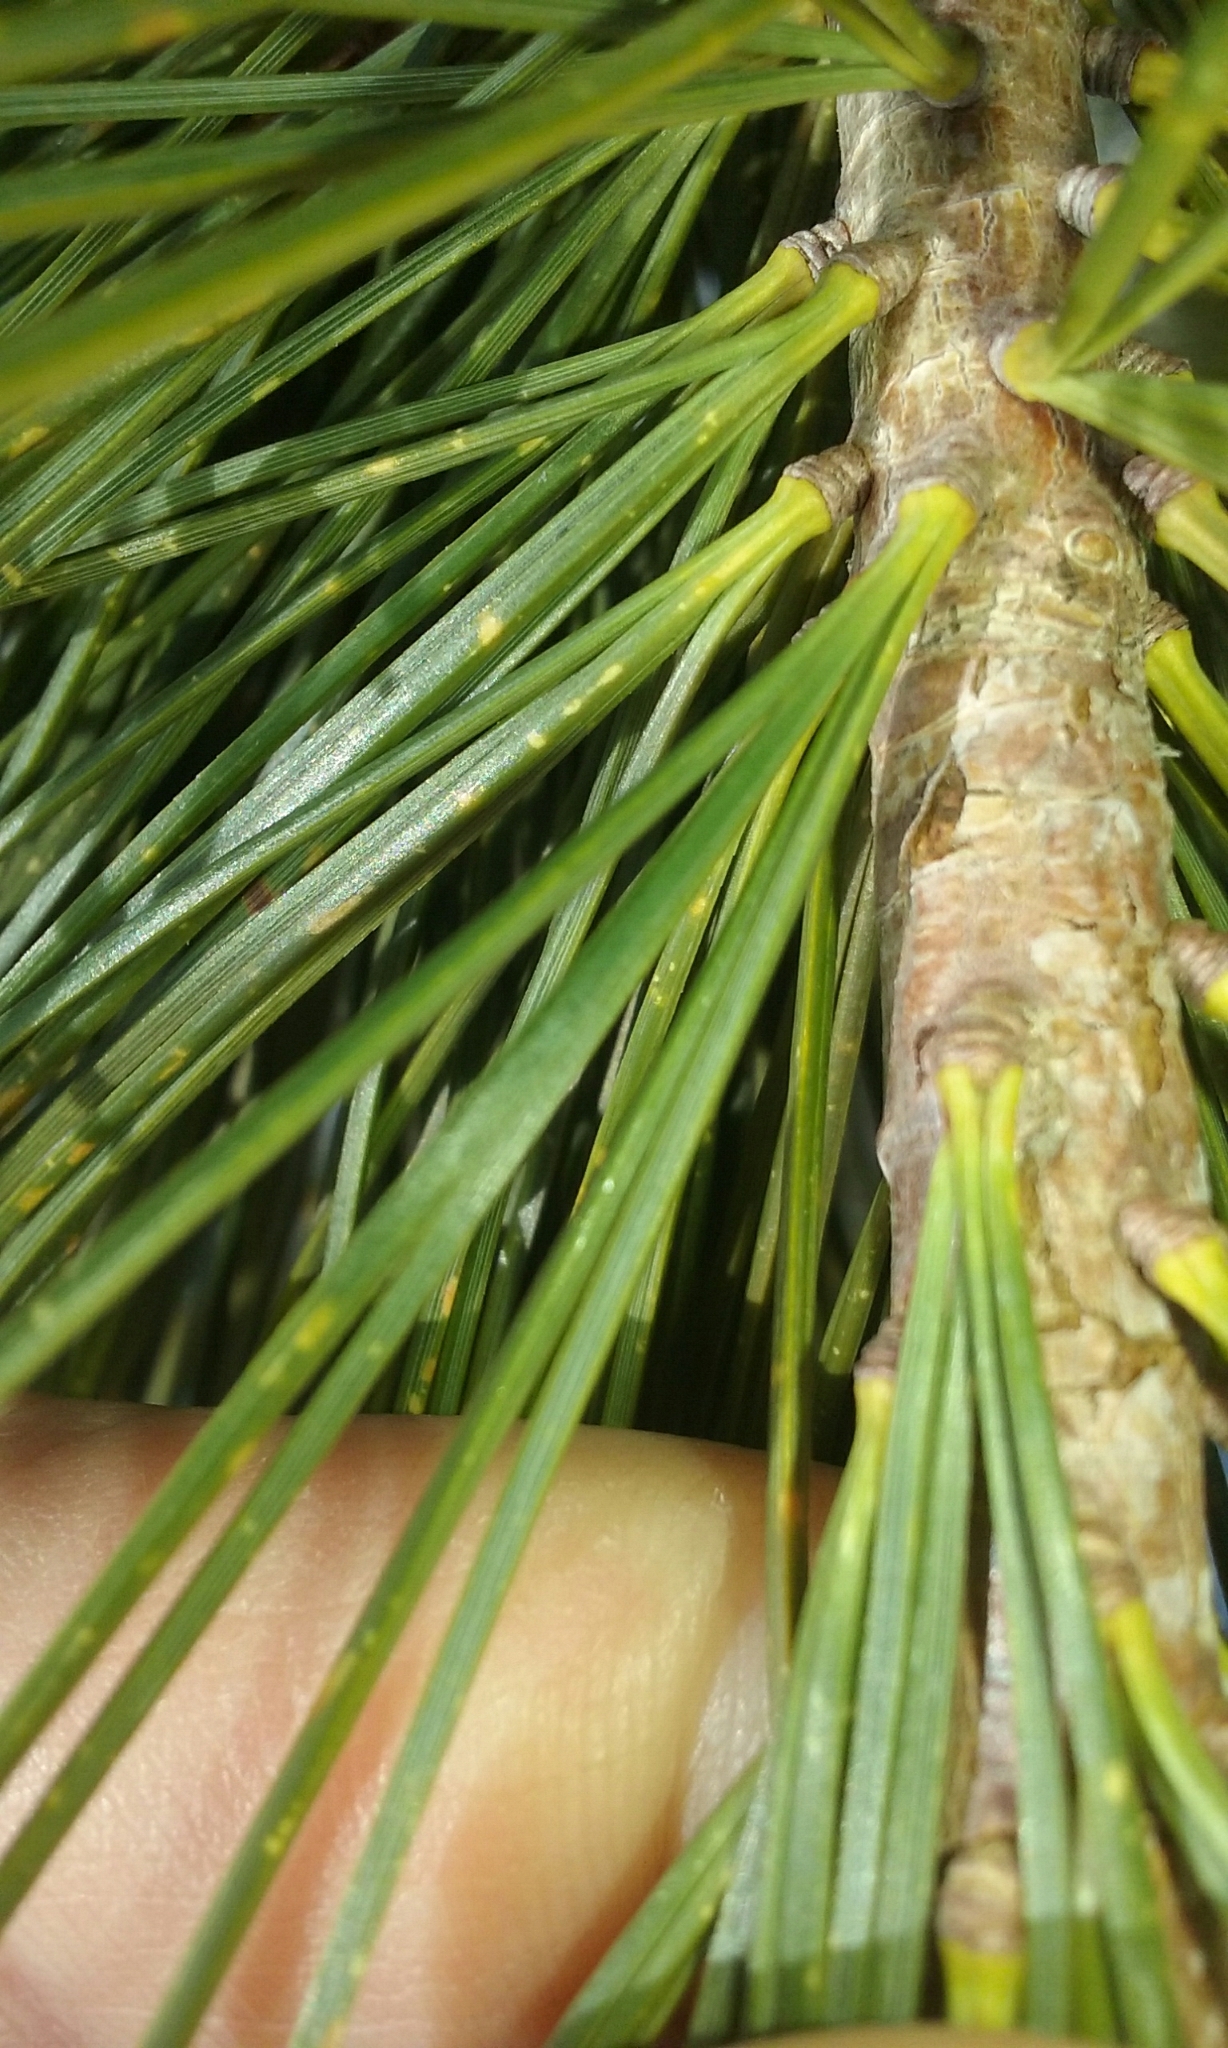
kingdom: Plantae
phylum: Tracheophyta
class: Pinopsida
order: Pinales
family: Pinaceae
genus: Pinus
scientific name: Pinus monticola
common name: Western white pine
